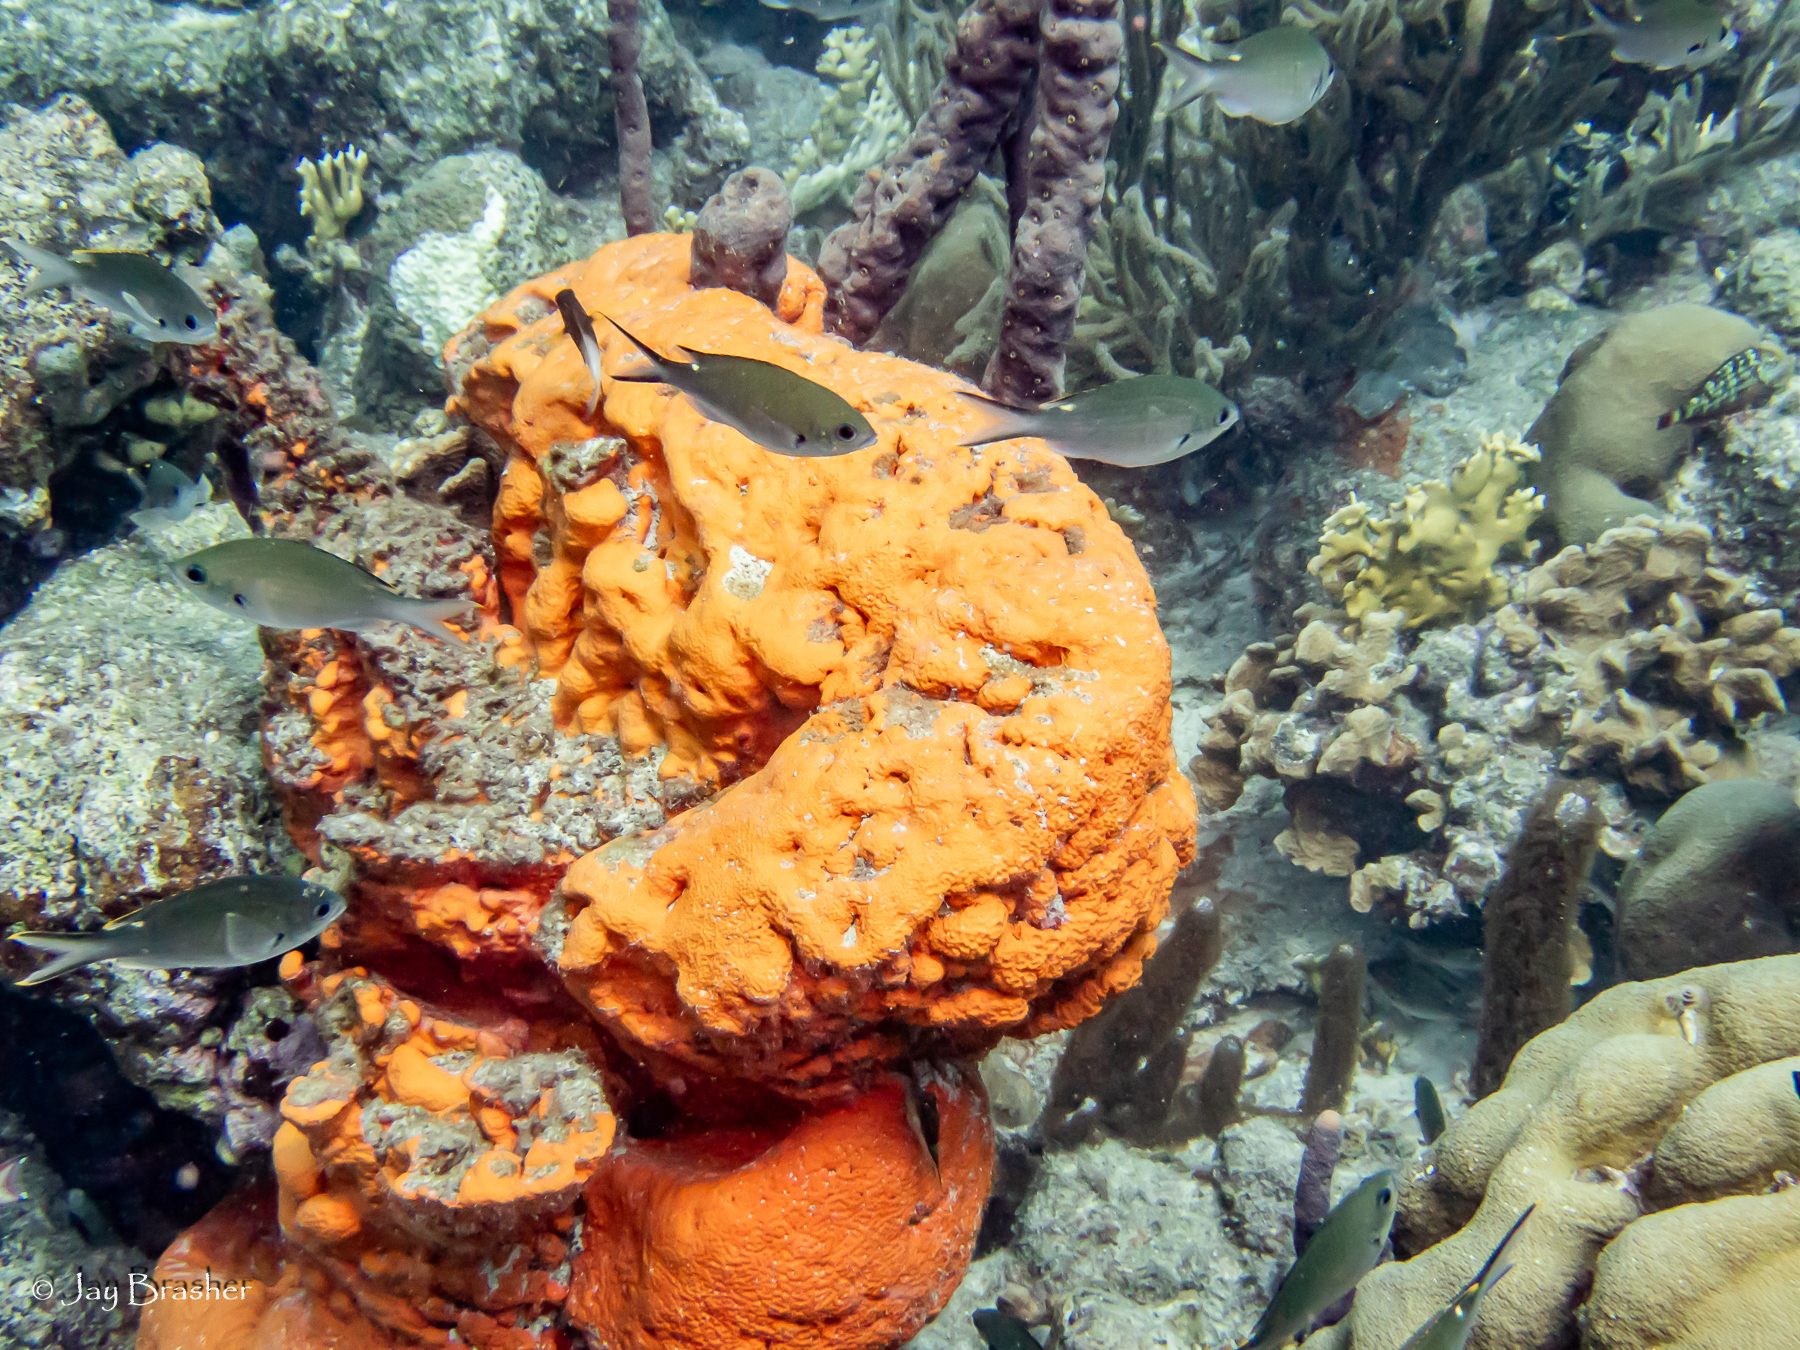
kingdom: Animalia
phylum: Porifera
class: Demospongiae
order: Agelasida
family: Agelasidae
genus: Agelas
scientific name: Agelas clathrodes
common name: Orange elephant ear sponge
